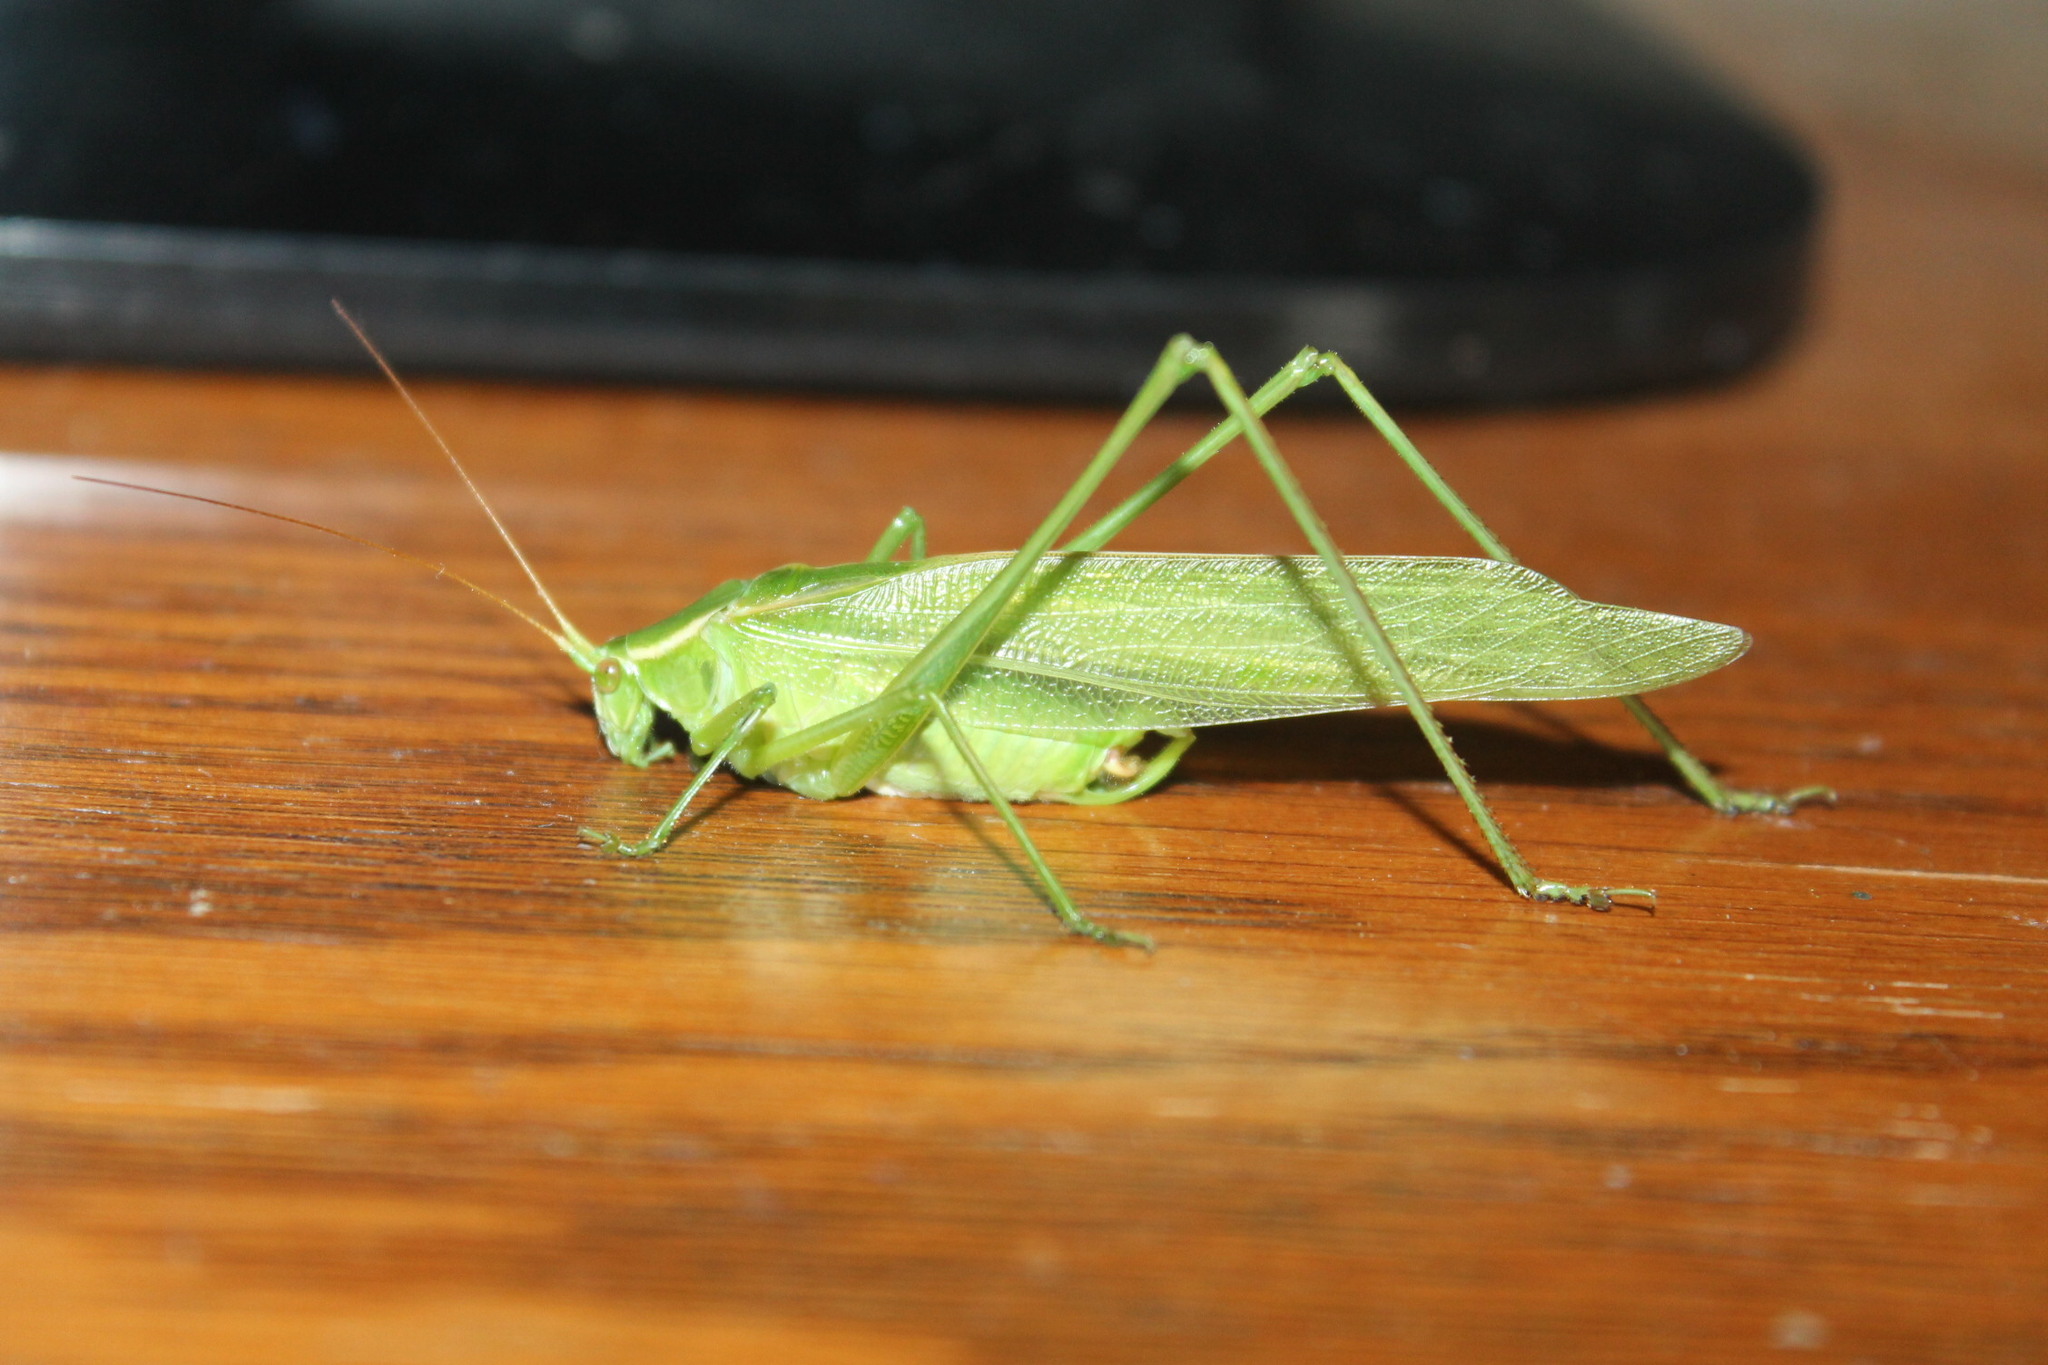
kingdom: Animalia
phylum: Arthropoda
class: Insecta
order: Orthoptera
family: Tettigoniidae
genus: Scudderia
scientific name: Scudderia septentrionalis
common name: Northern bush-katydid
